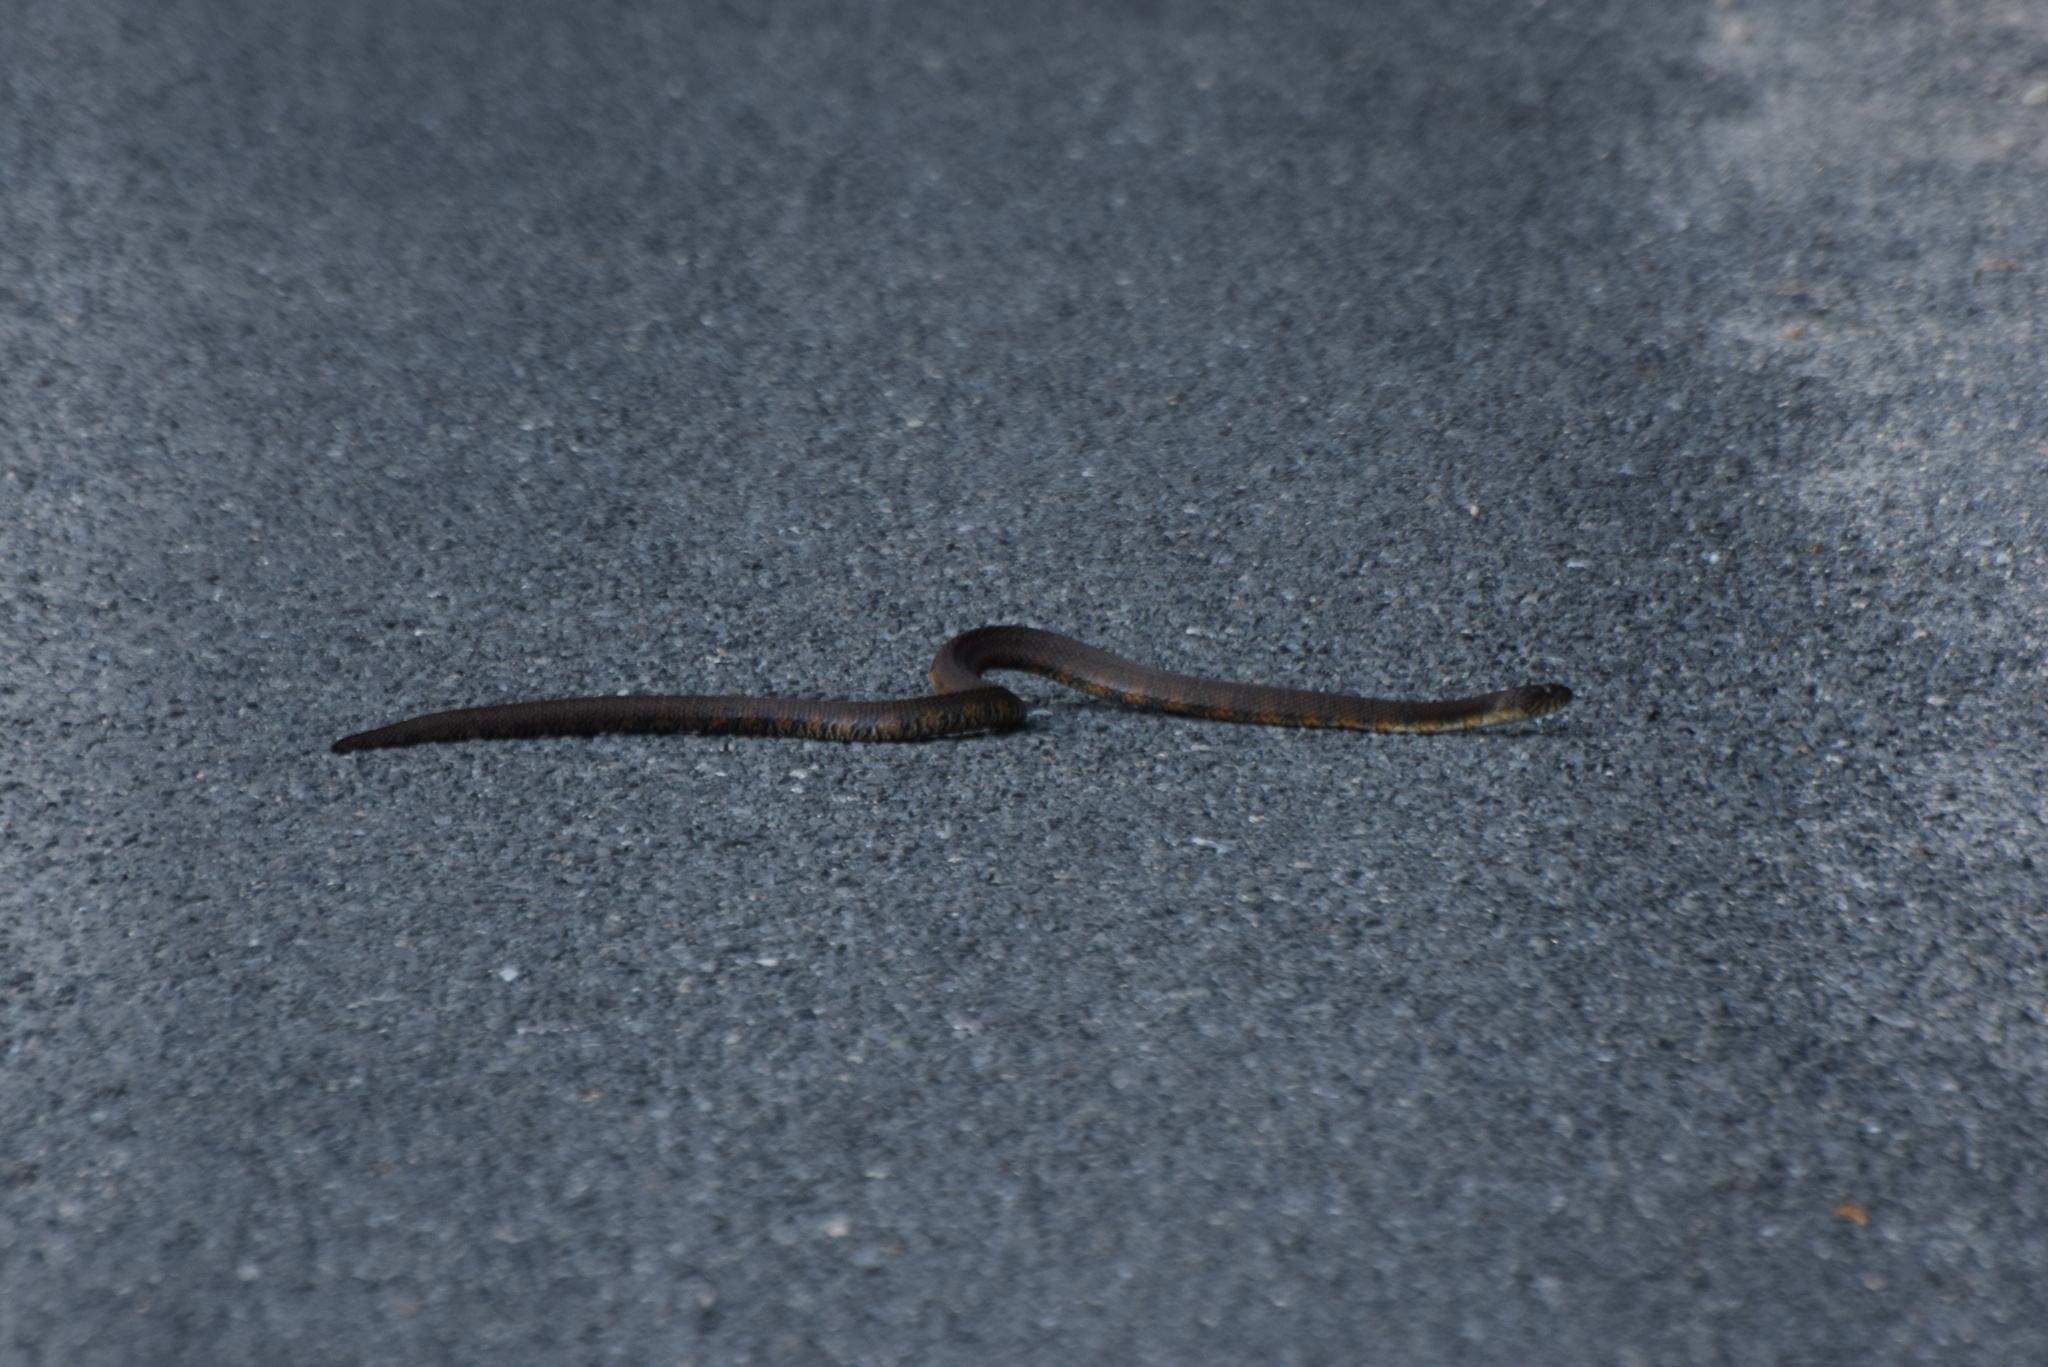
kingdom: Animalia
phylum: Chordata
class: Squamata
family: Colubridae
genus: Nerodia
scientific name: Nerodia sipedon
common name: Northern water snake
